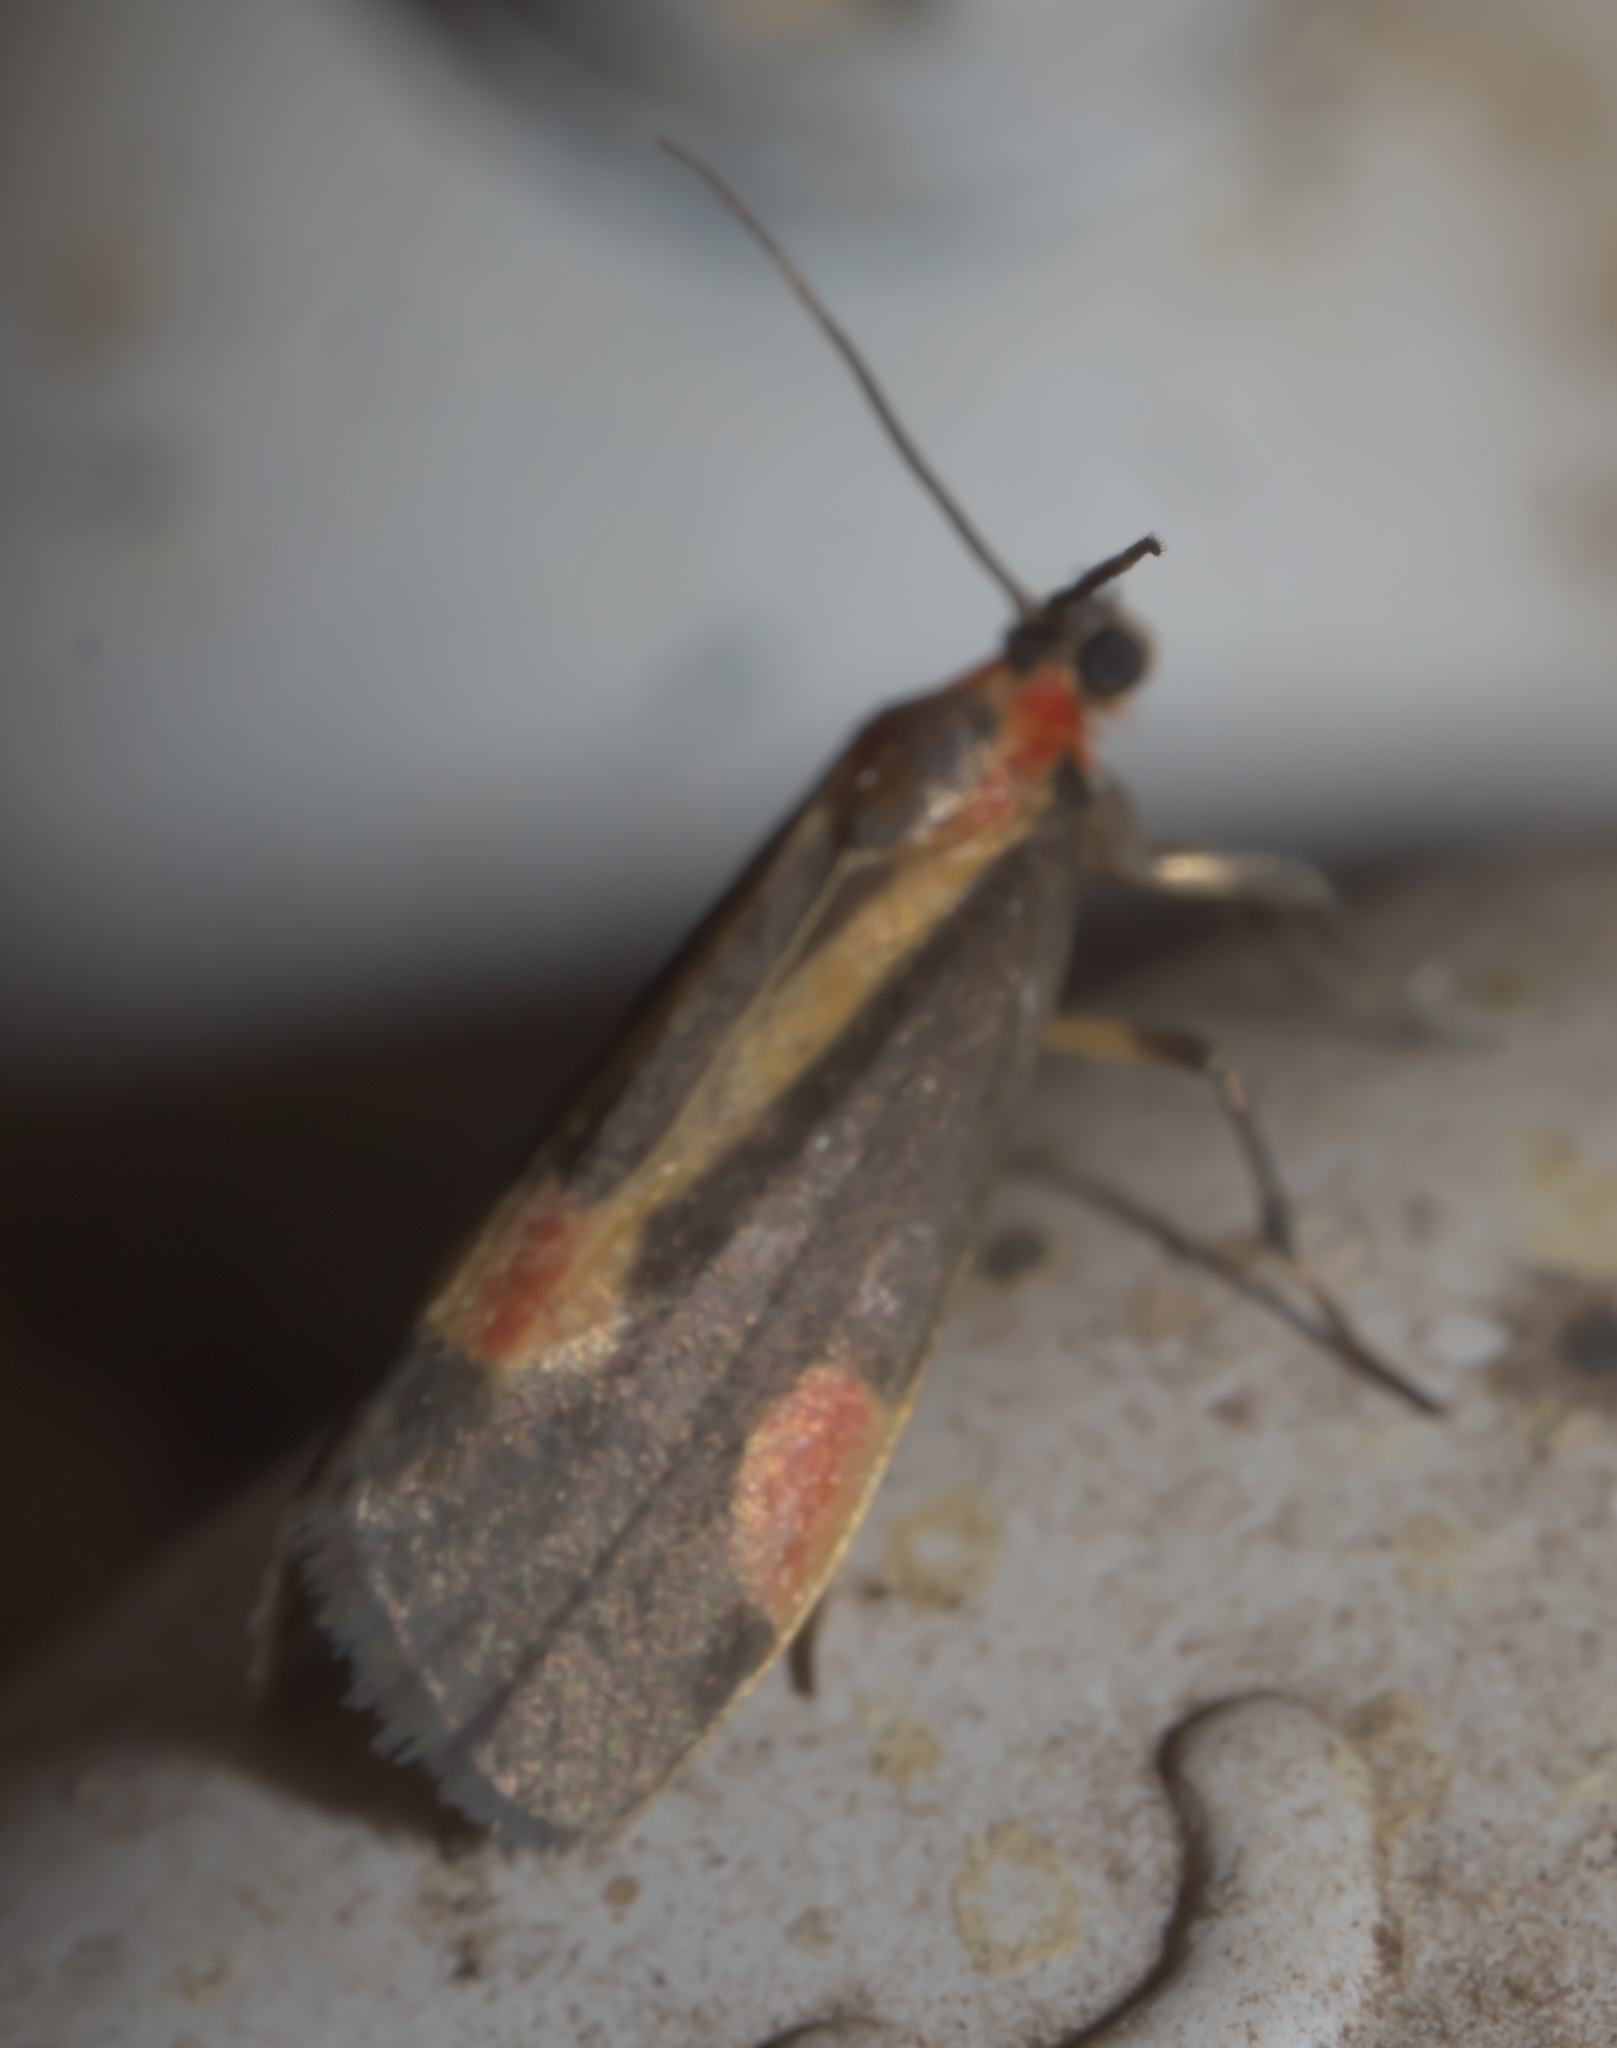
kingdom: Animalia
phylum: Arthropoda
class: Insecta
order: Lepidoptera
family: Erebidae
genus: Cisthene
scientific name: Cisthene packardii
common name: Packard's lichen moth
